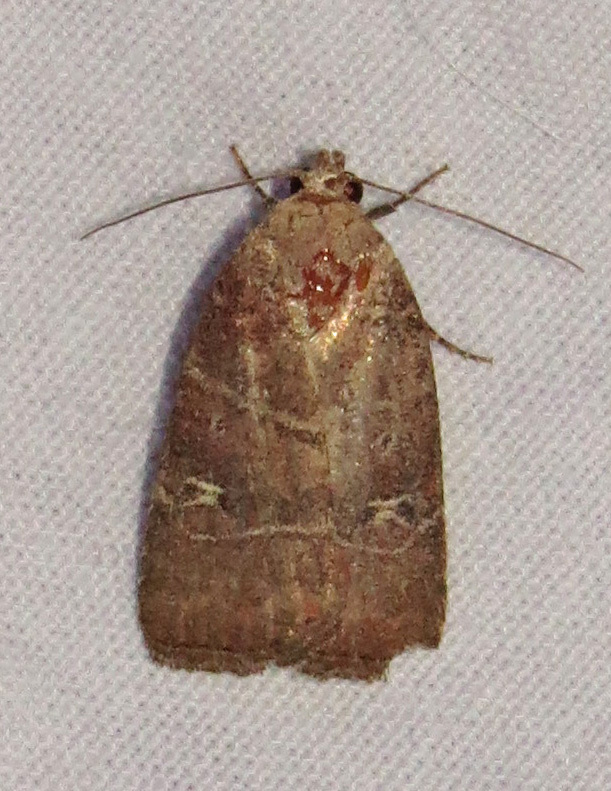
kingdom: Animalia
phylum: Arthropoda
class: Insecta
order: Lepidoptera
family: Noctuidae
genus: Elaphria
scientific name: Elaphria grata
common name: Grateful midget moth
